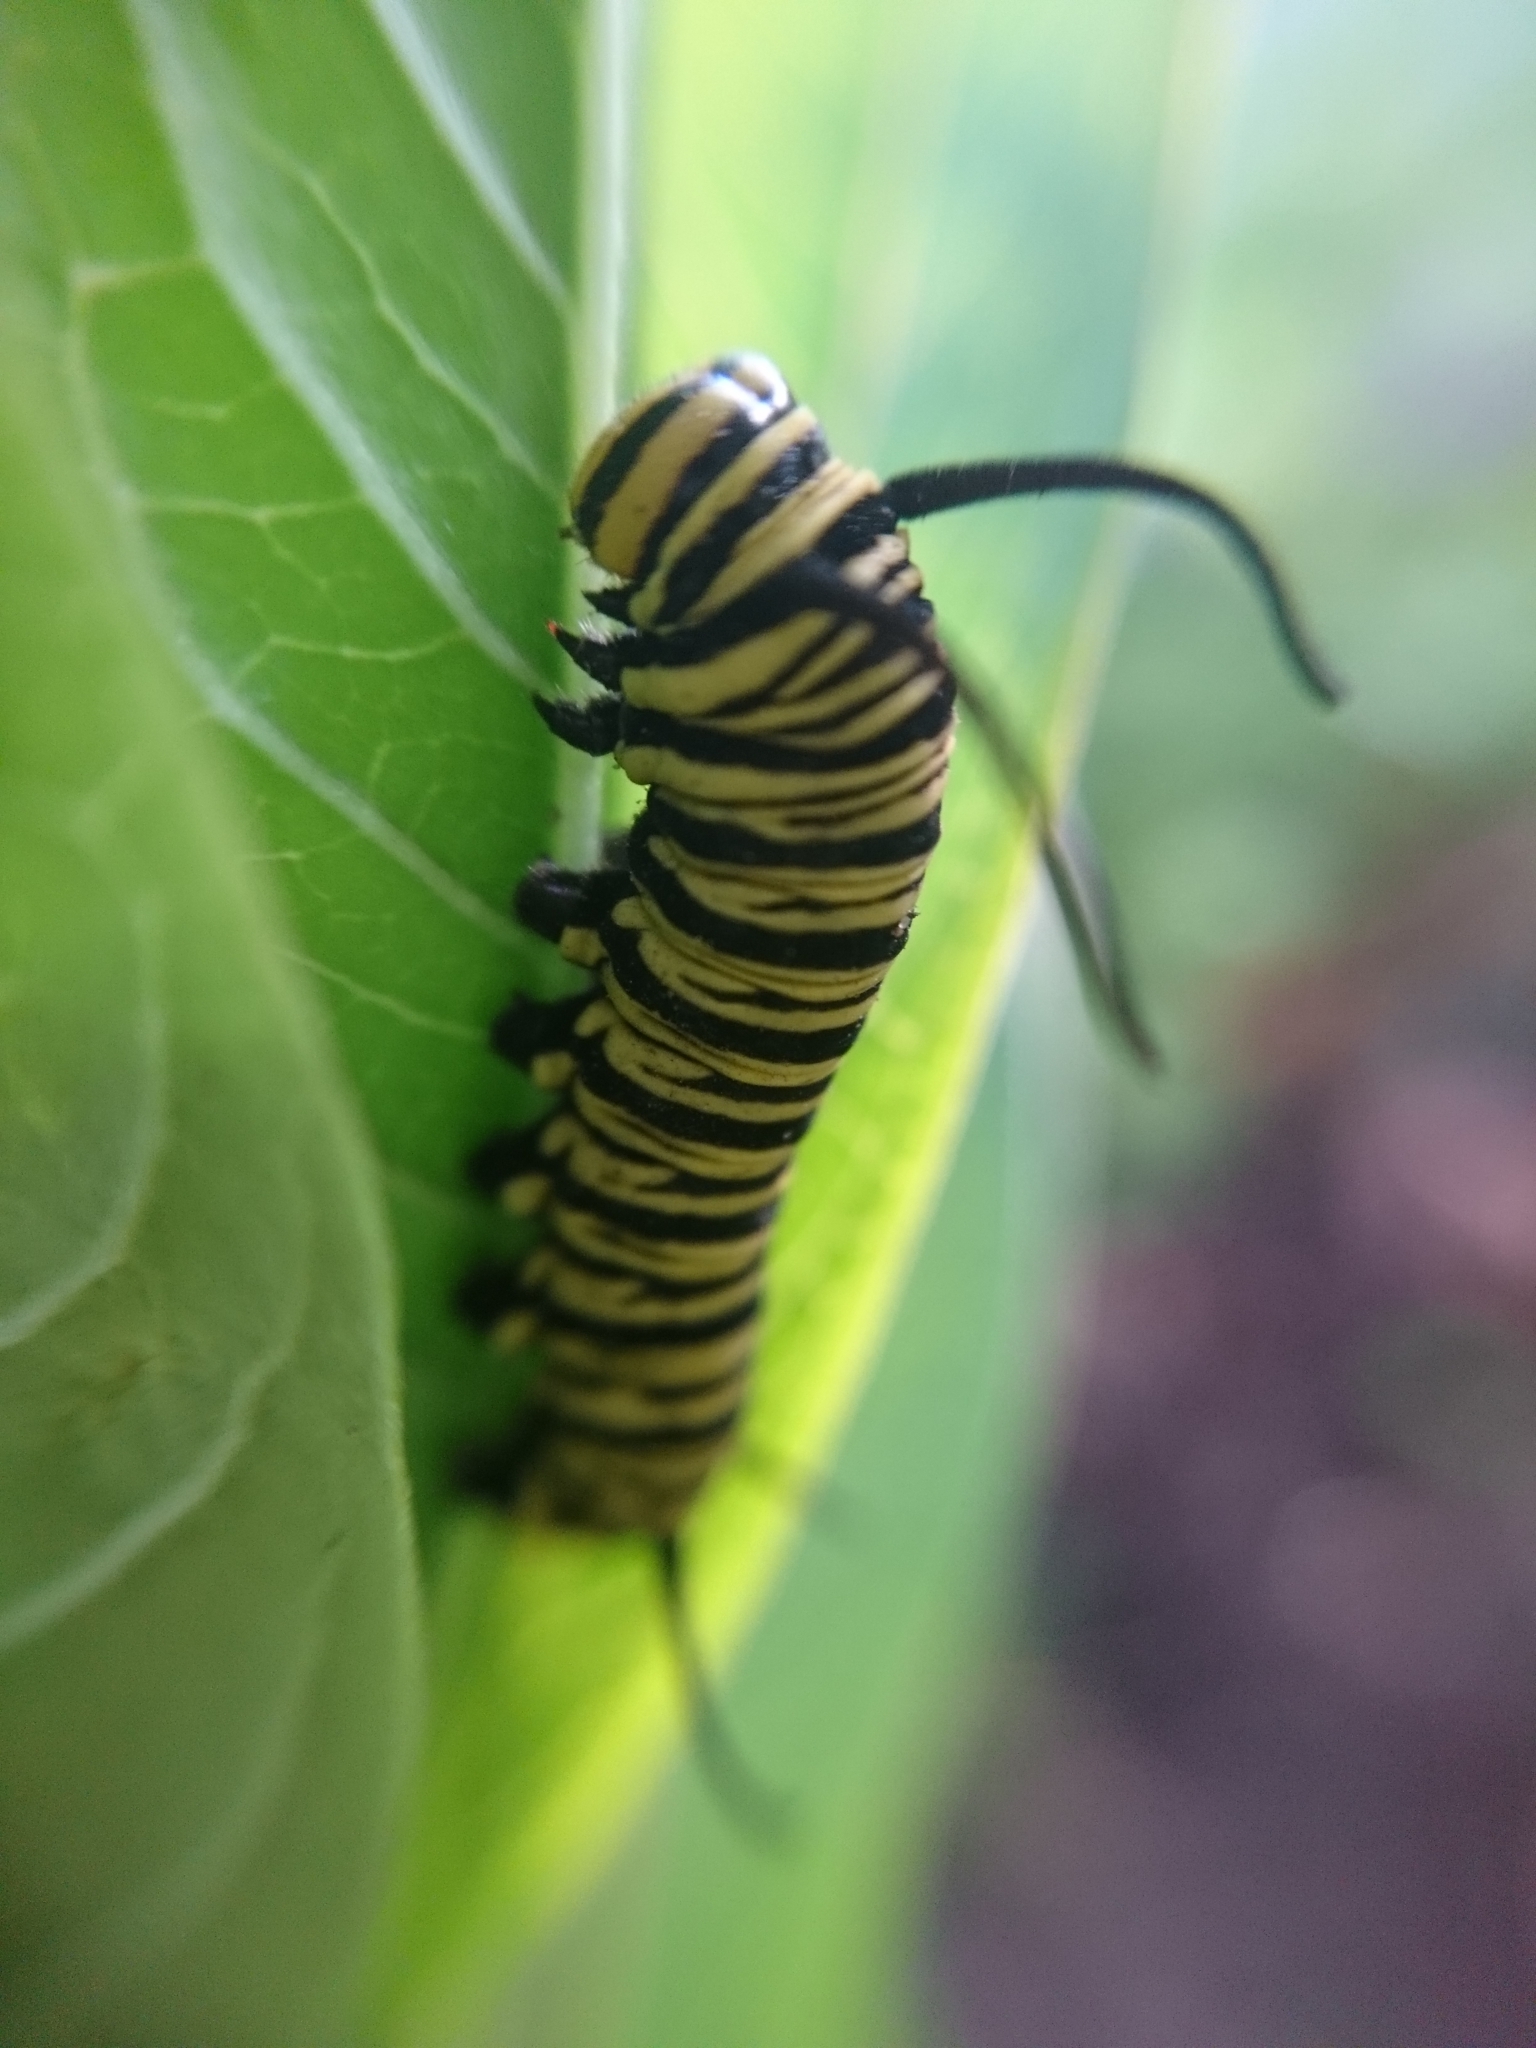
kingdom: Animalia
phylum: Arthropoda
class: Insecta
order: Lepidoptera
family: Nymphalidae
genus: Danaus
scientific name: Danaus erippus
